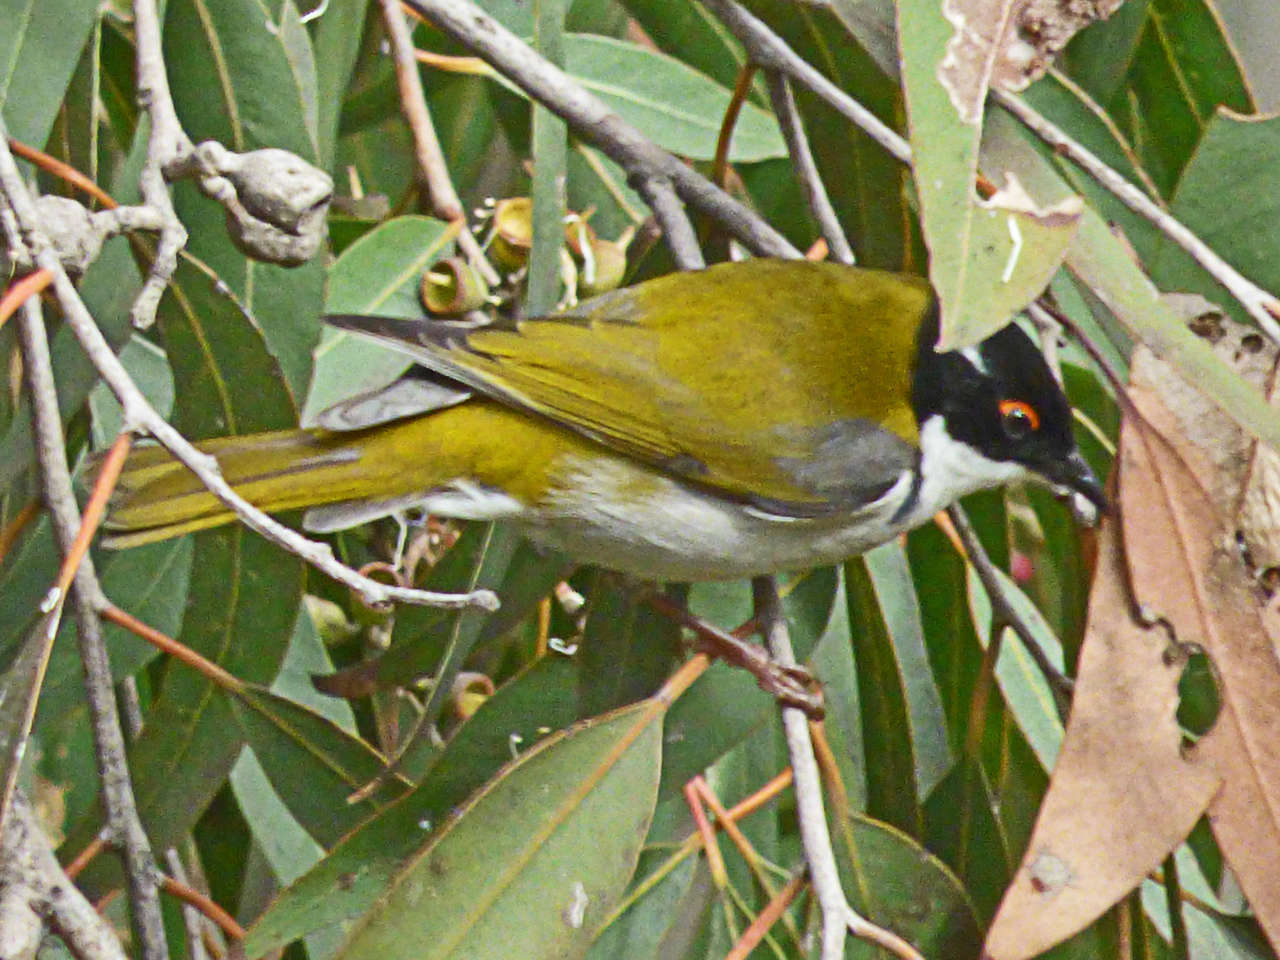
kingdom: Animalia
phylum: Chordata
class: Aves
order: Passeriformes
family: Meliphagidae
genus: Melithreptus
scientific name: Melithreptus lunatus
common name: White-naped honeyeater
